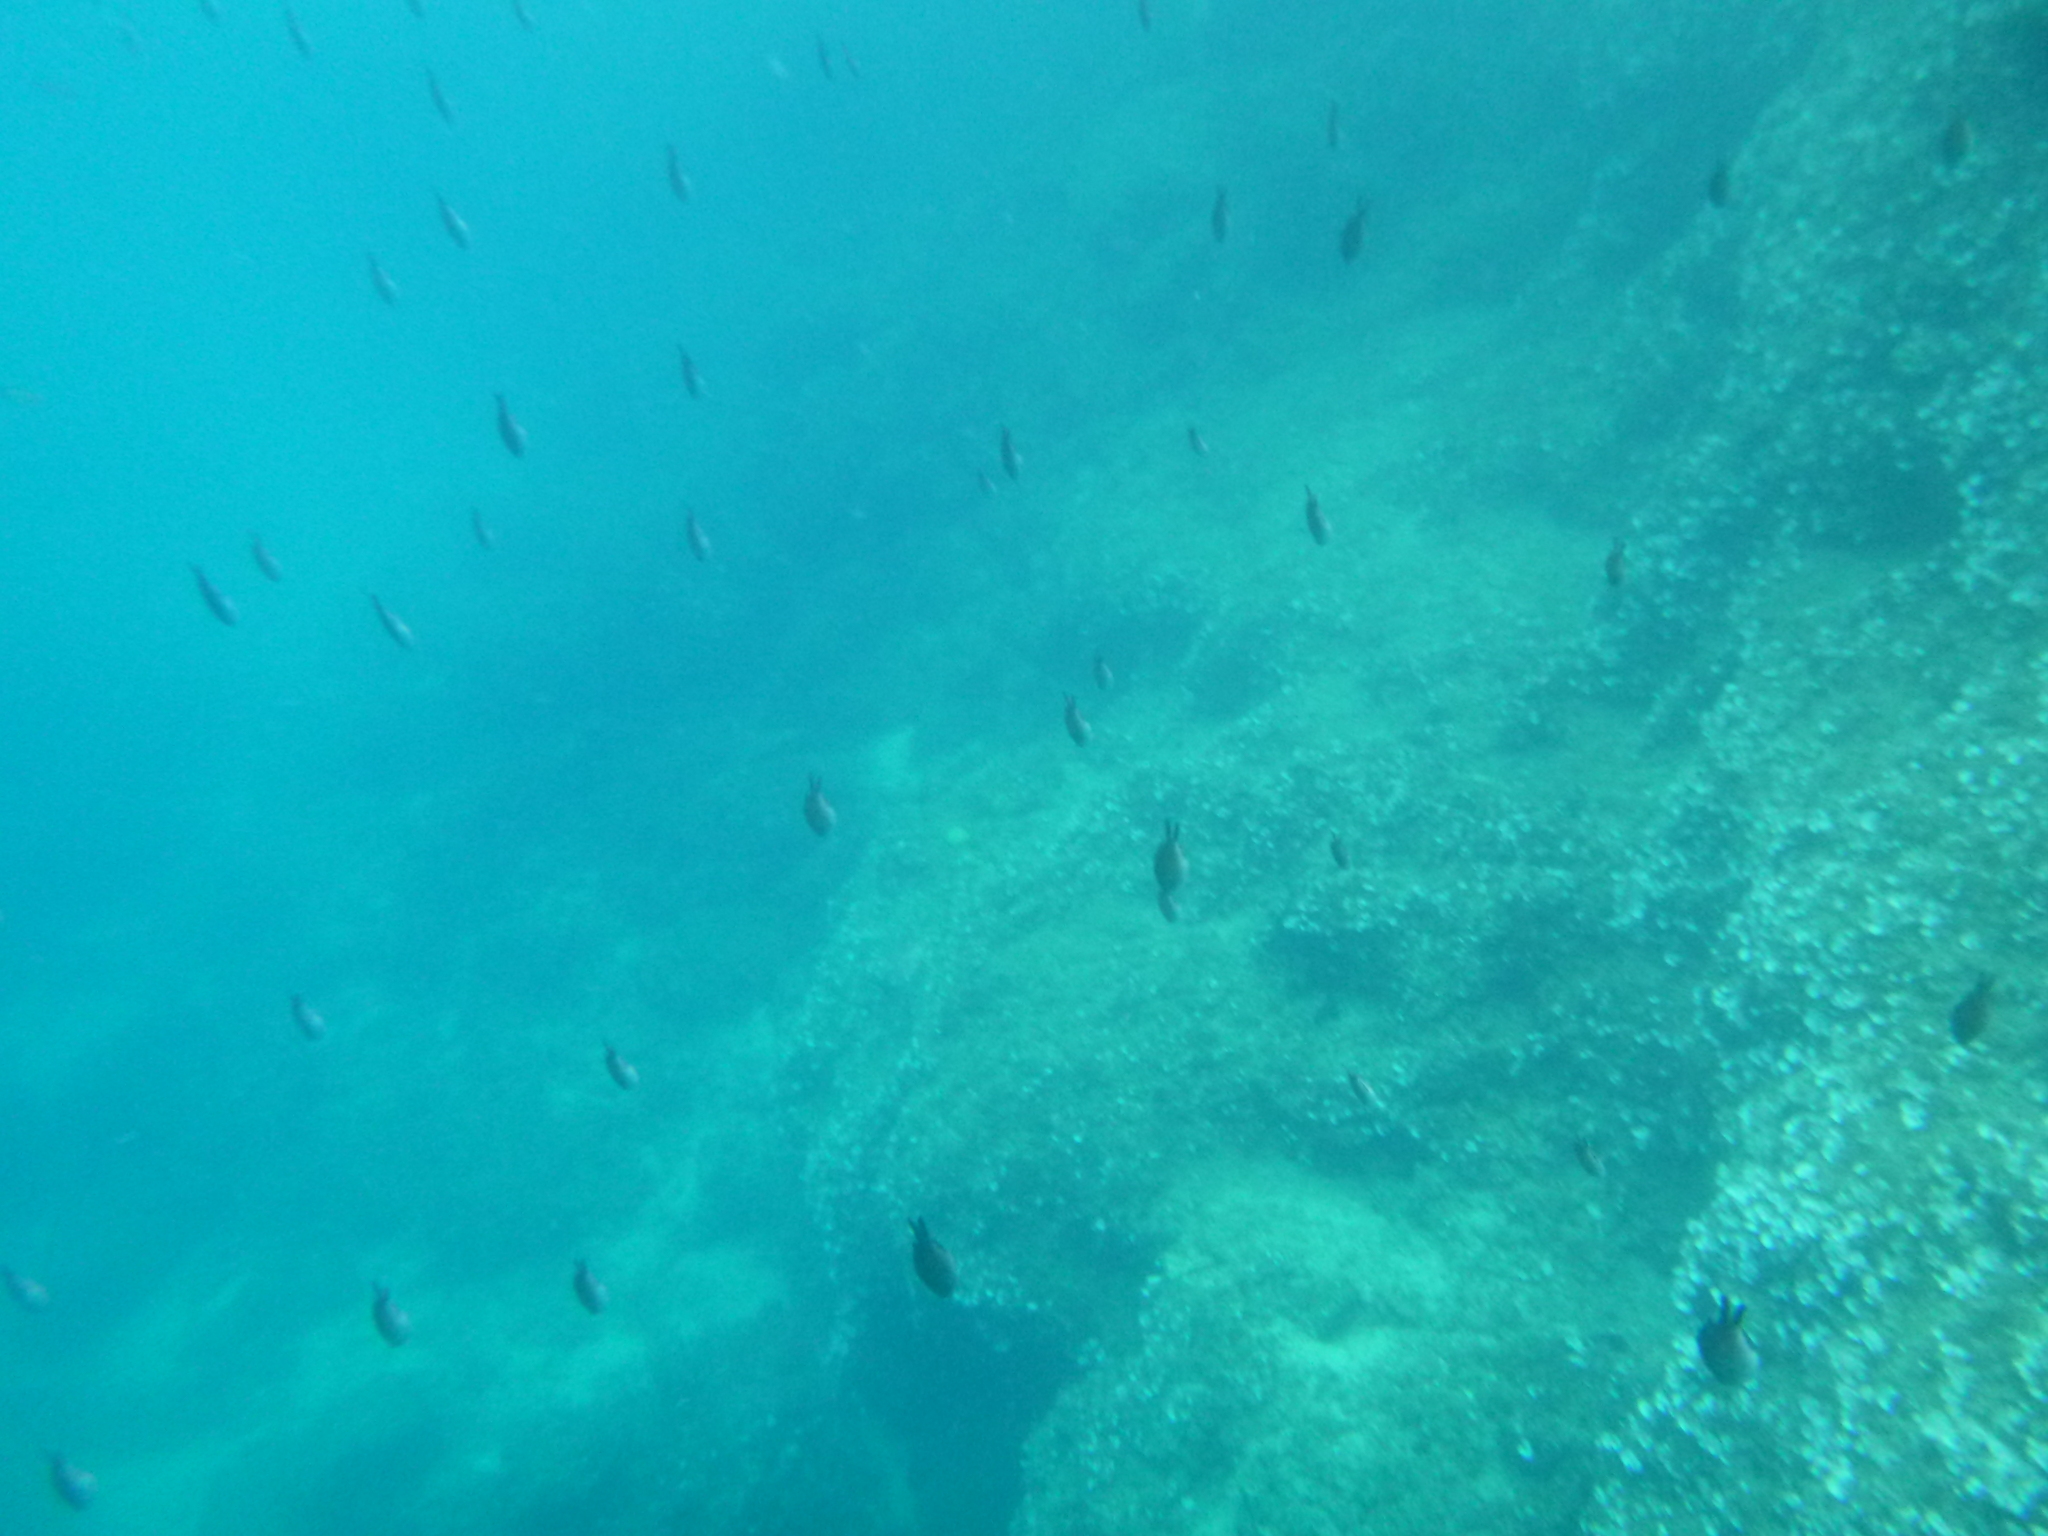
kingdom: Animalia
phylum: Chordata
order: Perciformes
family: Pomacentridae
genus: Chromis
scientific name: Chromis chromis
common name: Damselfish
